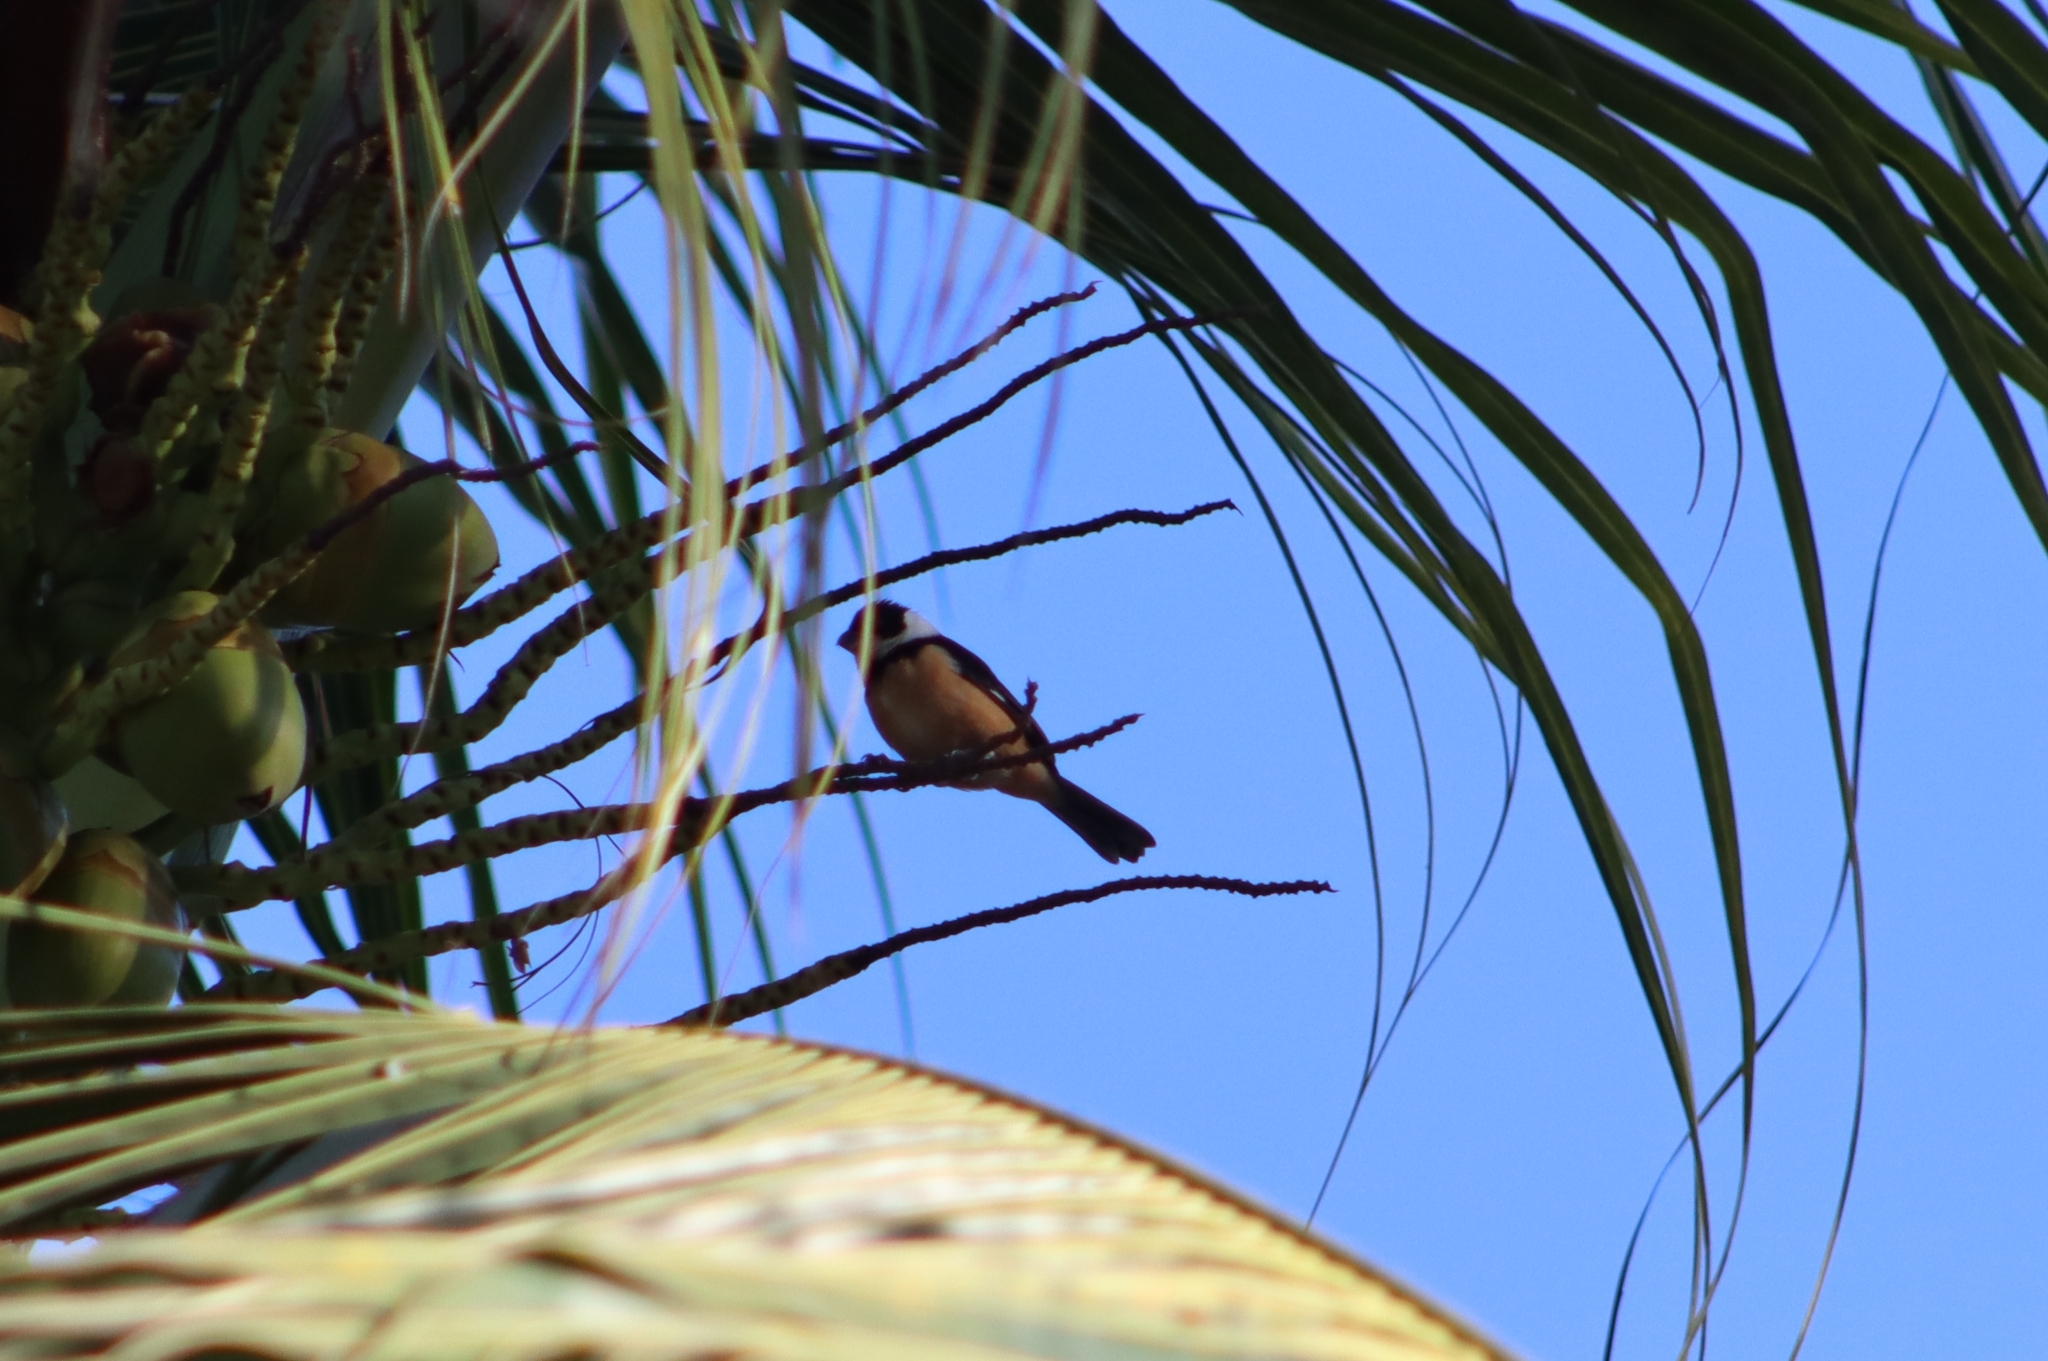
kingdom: Animalia
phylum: Chordata
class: Aves
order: Passeriformes
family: Thraupidae
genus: Sporophila
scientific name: Sporophila torqueola
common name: White-collared seedeater
